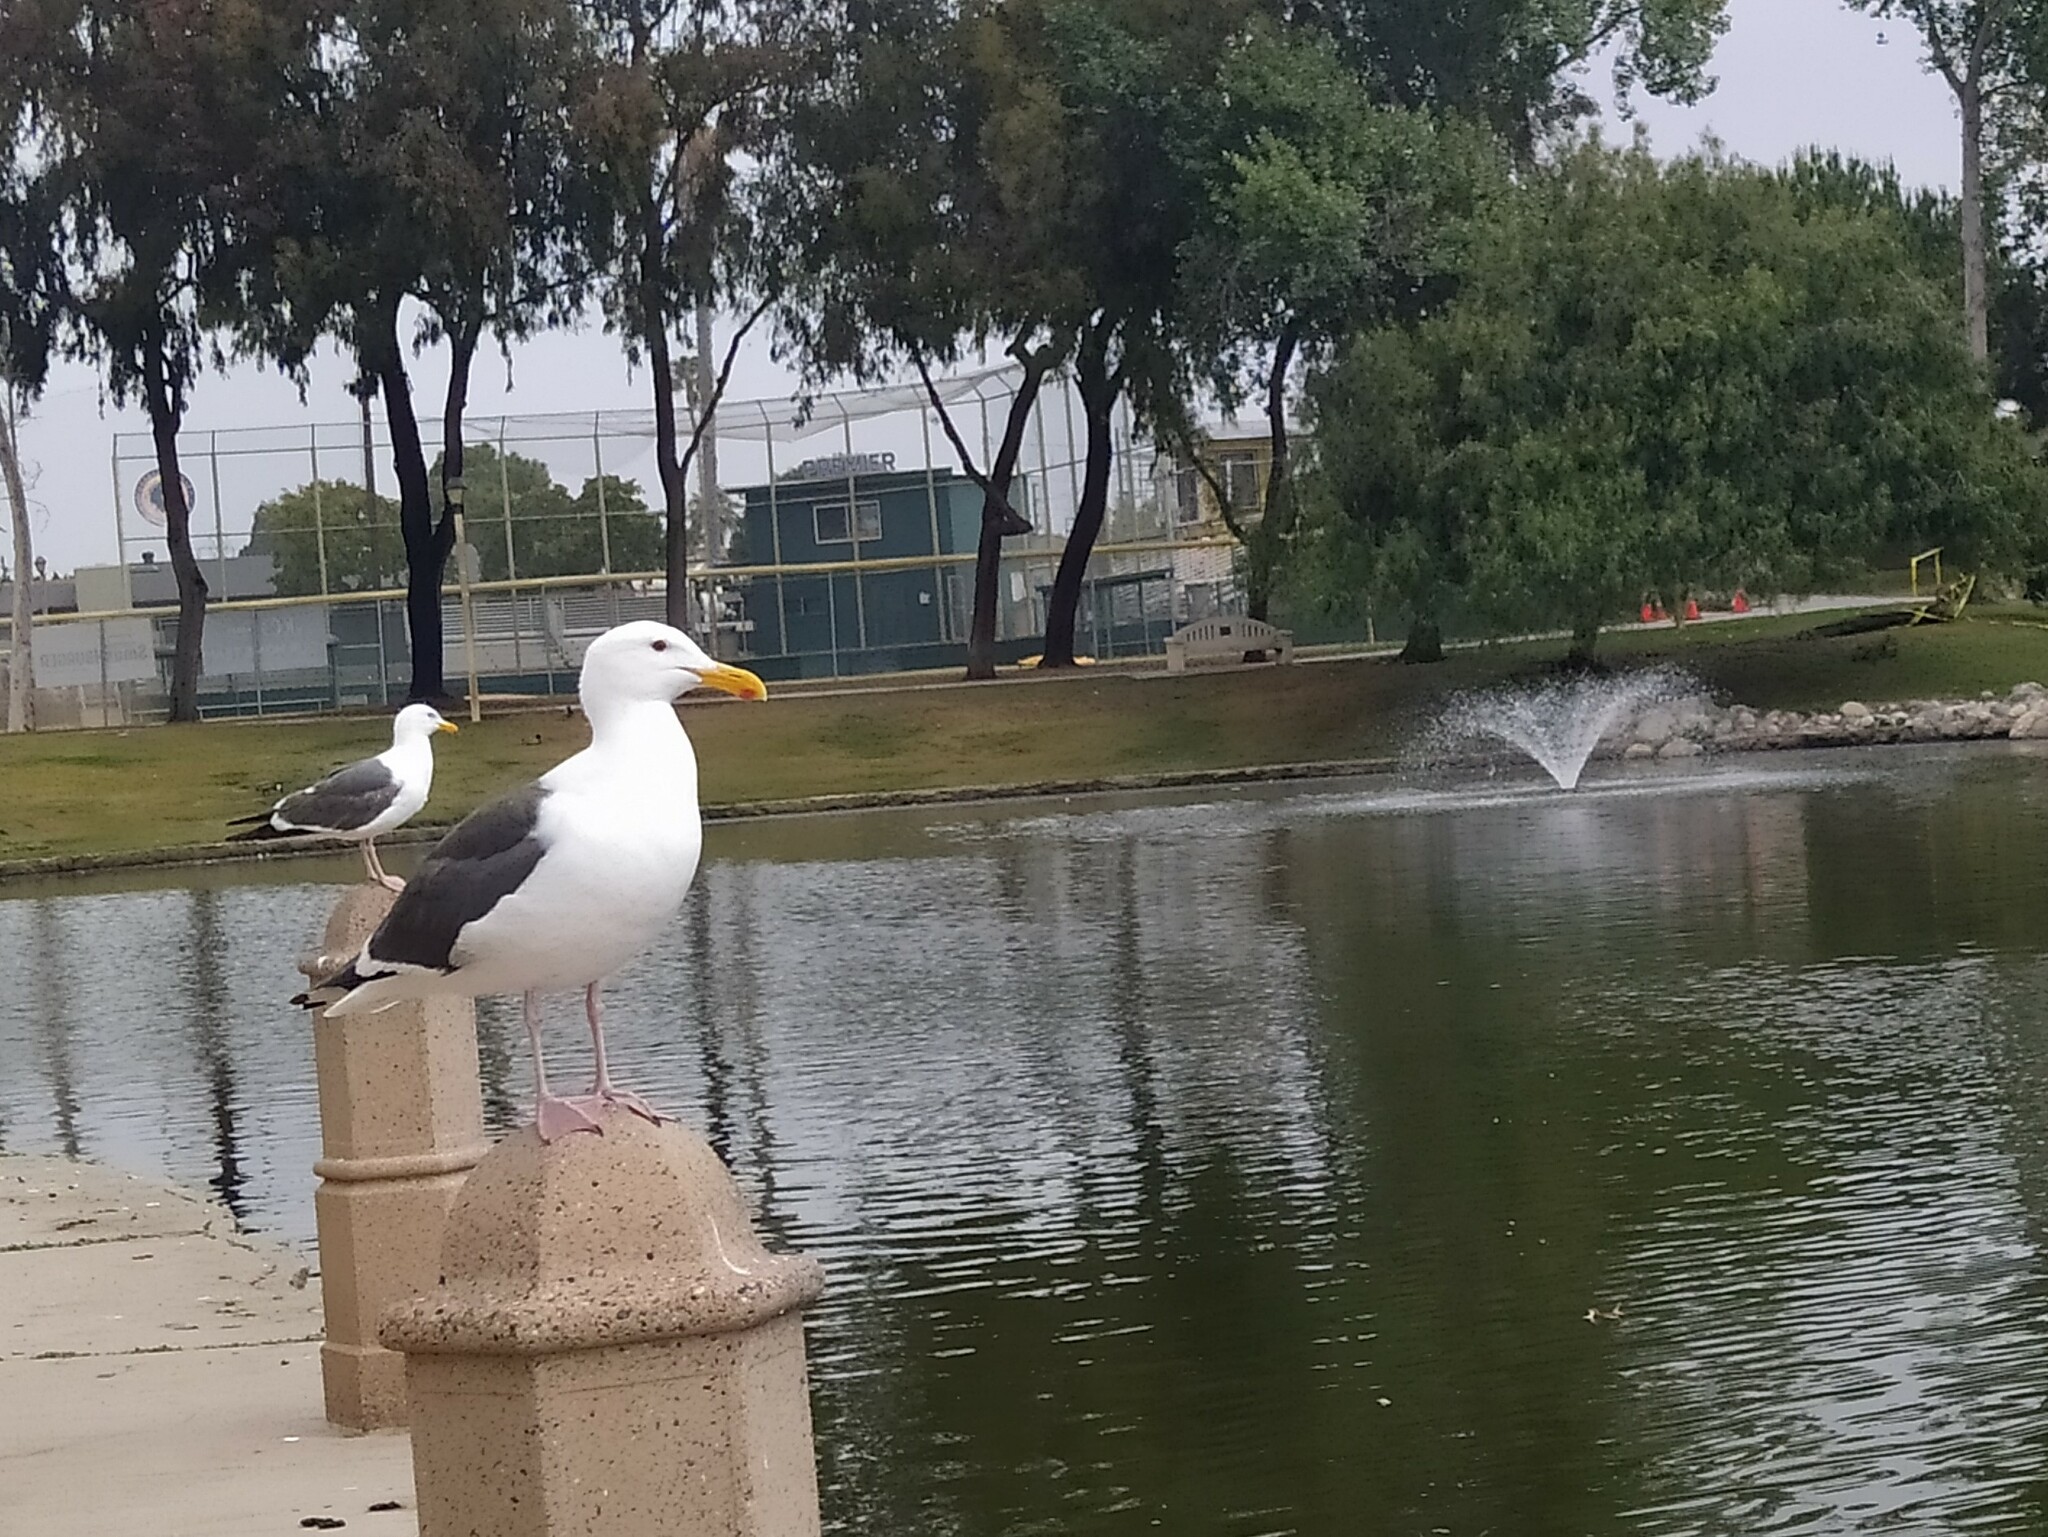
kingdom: Animalia
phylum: Chordata
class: Aves
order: Charadriiformes
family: Laridae
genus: Larus
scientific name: Larus occidentalis
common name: Western gull
